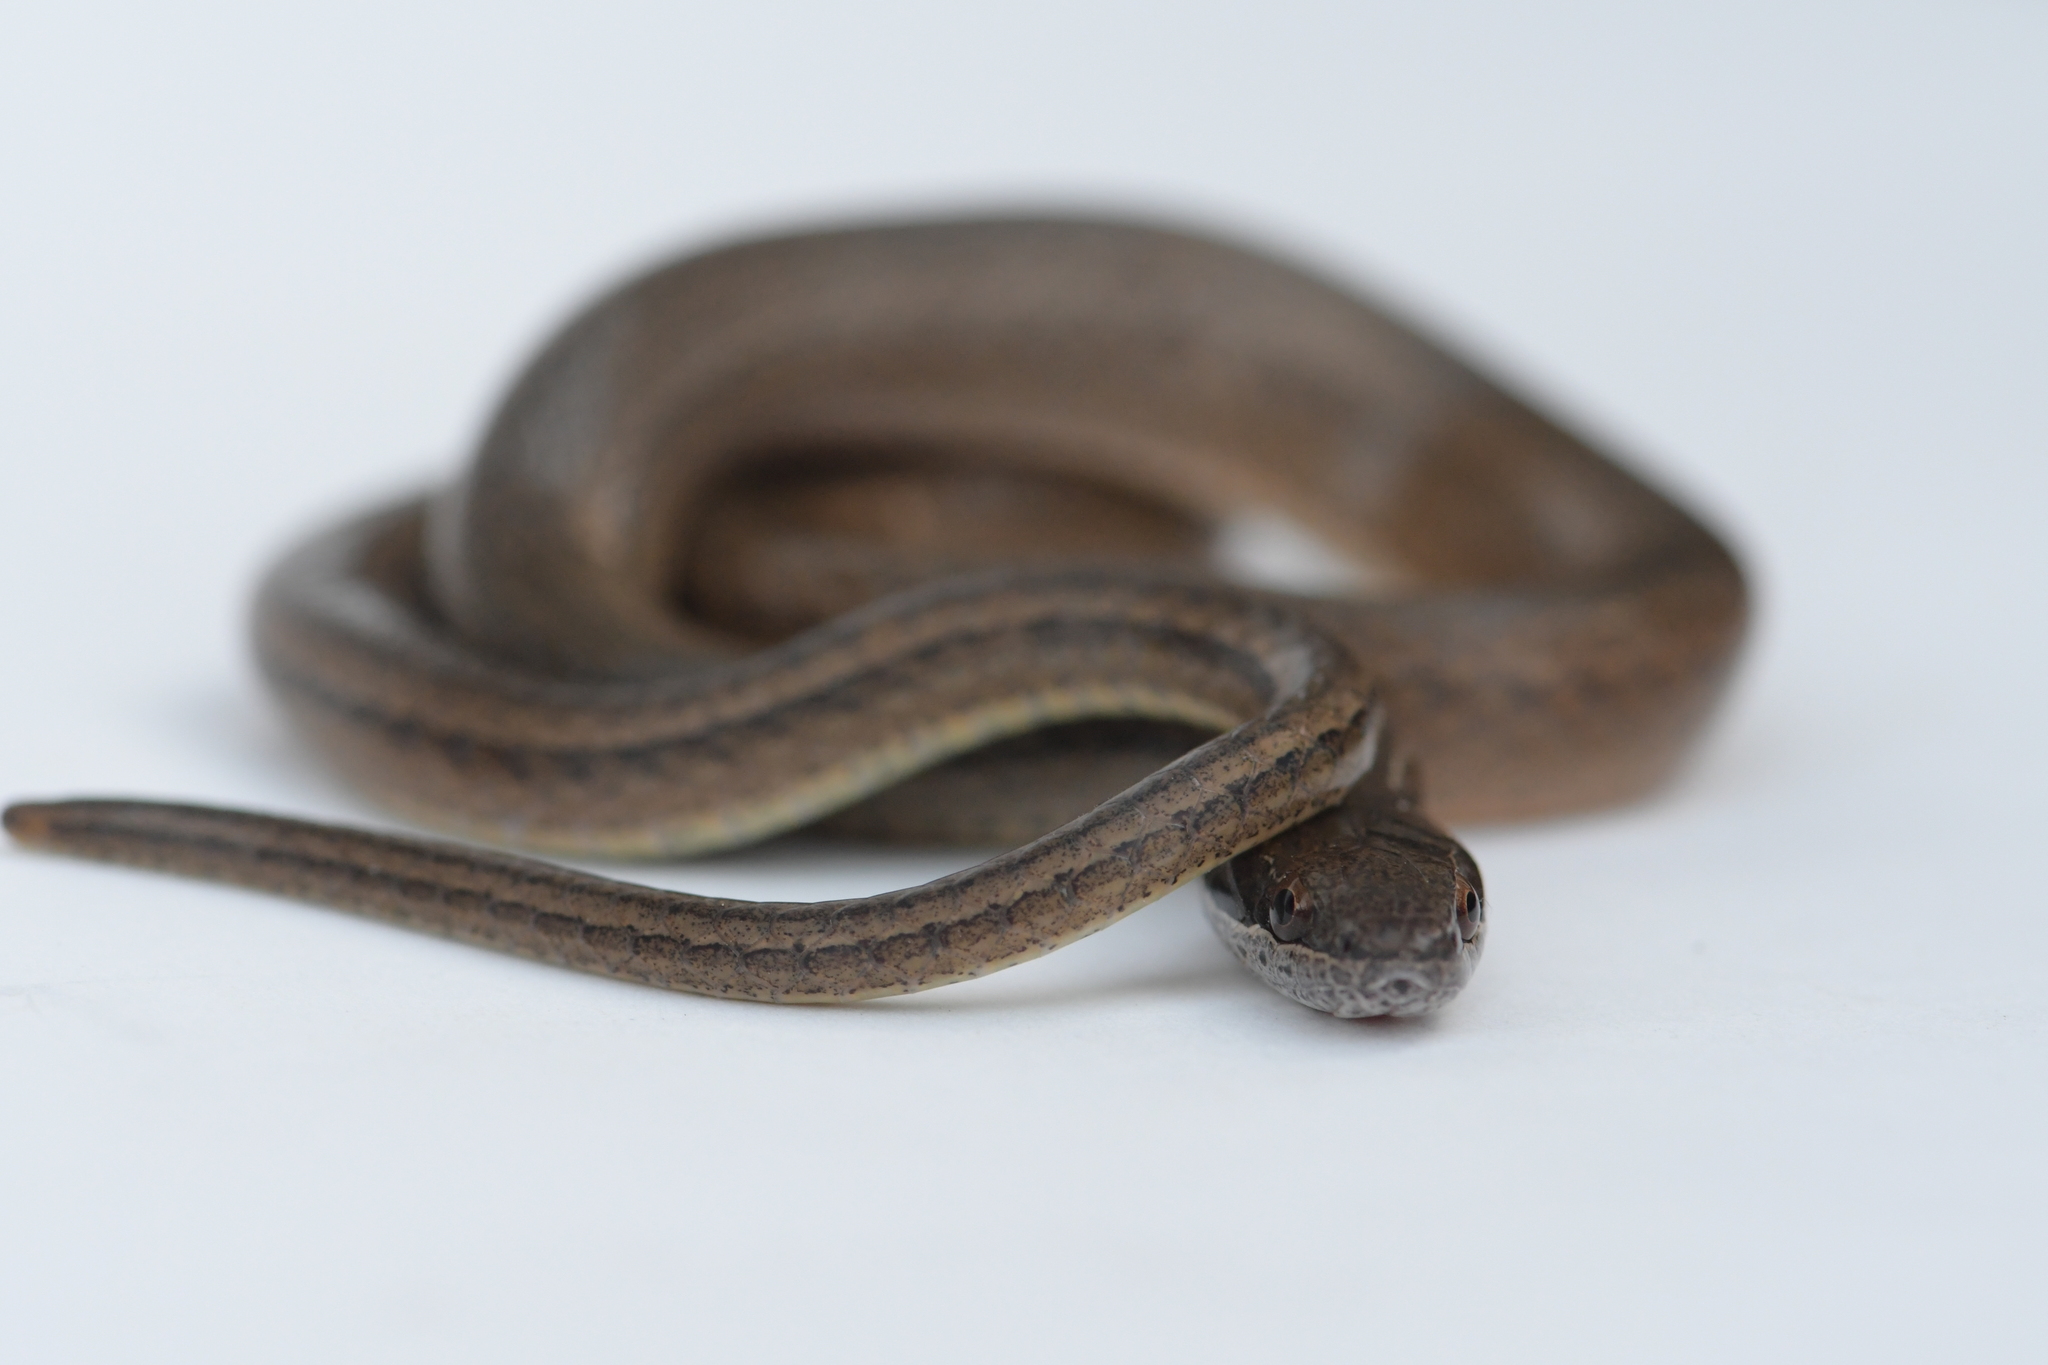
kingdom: Animalia
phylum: Chordata
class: Squamata
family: Colubridae
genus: Coniophanes
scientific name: Coniophanes fissidens
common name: Yellowbelly snake
